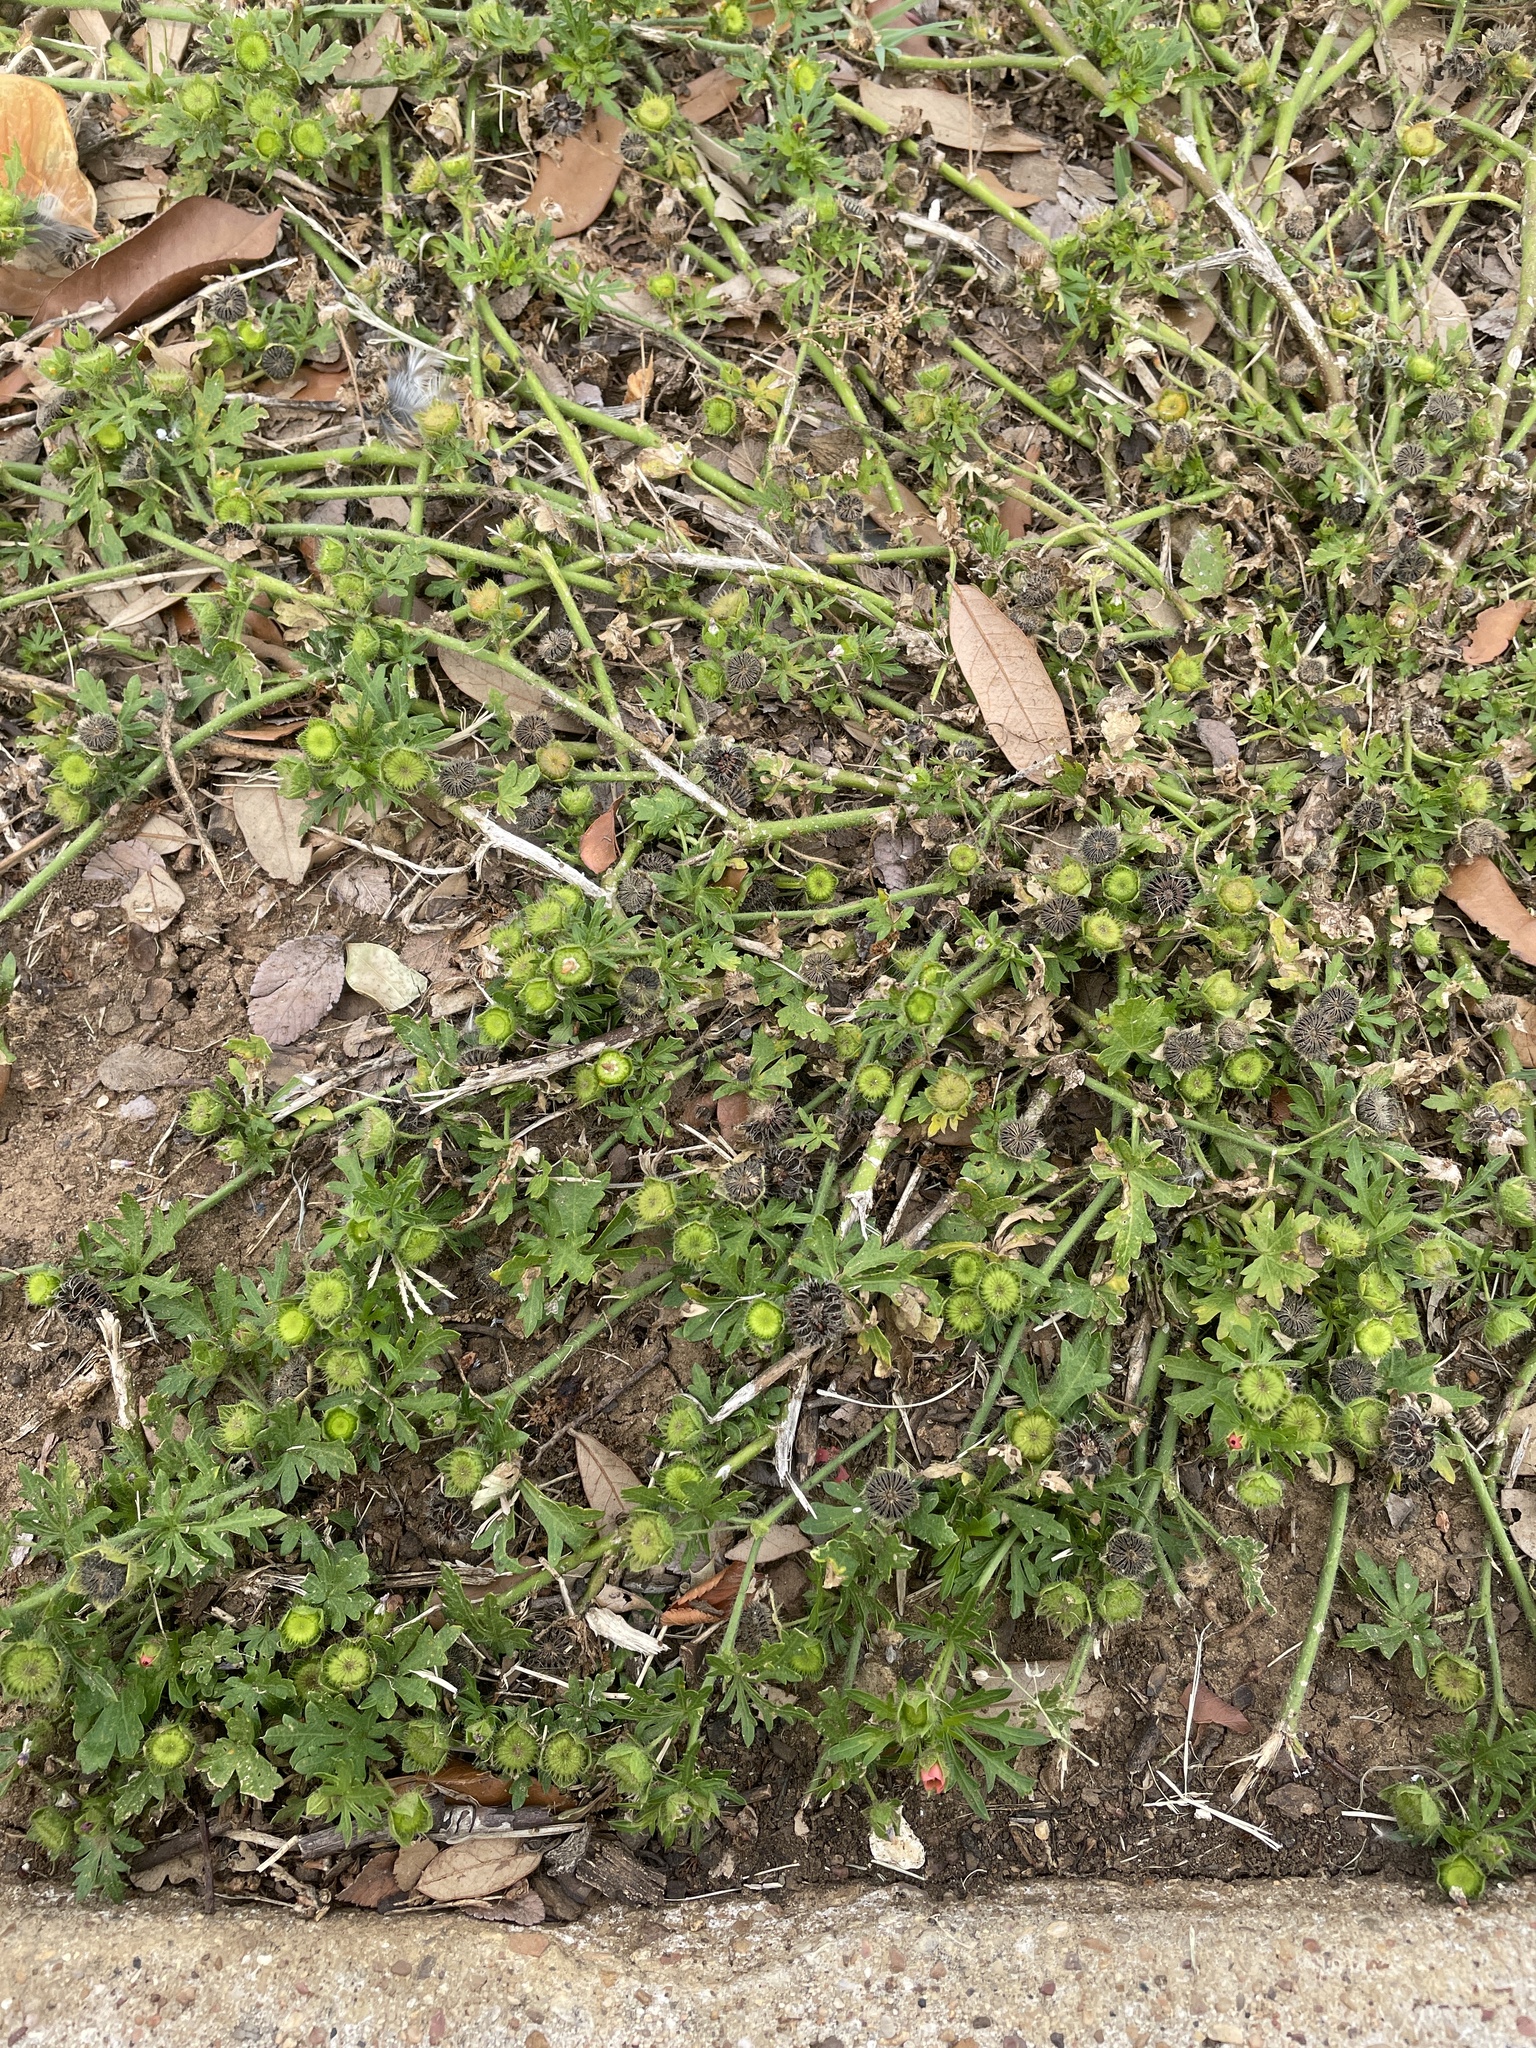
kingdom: Plantae
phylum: Tracheophyta
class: Magnoliopsida
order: Malvales
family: Malvaceae
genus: Modiola
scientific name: Modiola caroliniana
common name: Carolina bristlemallow
